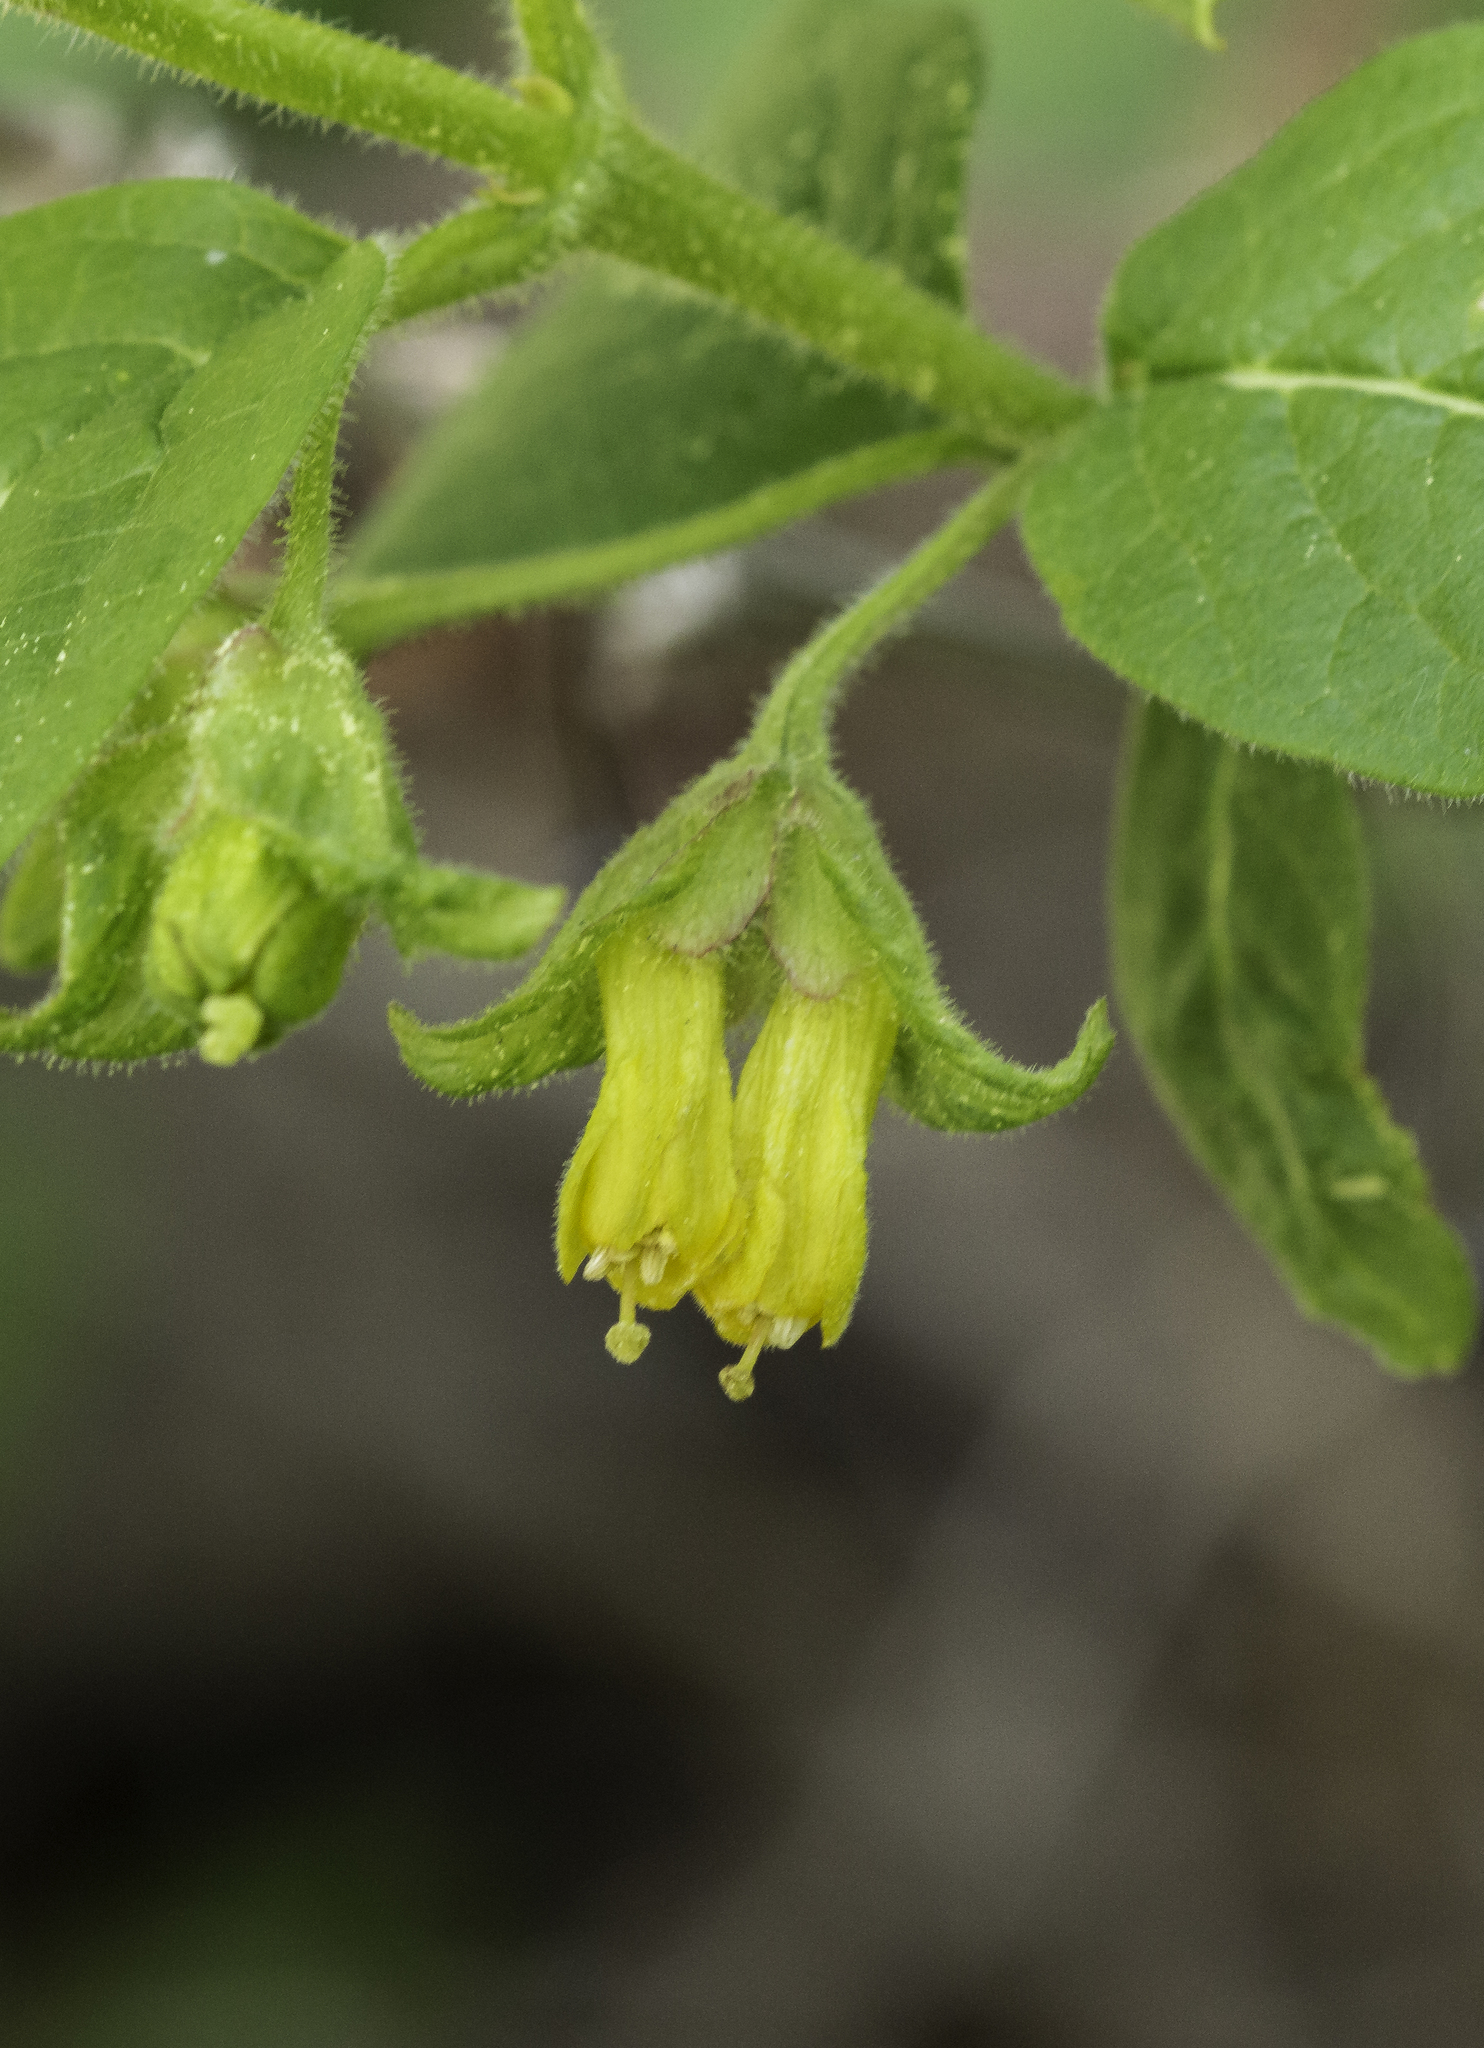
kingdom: Plantae
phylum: Tracheophyta
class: Magnoliopsida
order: Dipsacales
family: Caprifoliaceae
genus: Lonicera
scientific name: Lonicera involucrata
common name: Californian honeysuckle
